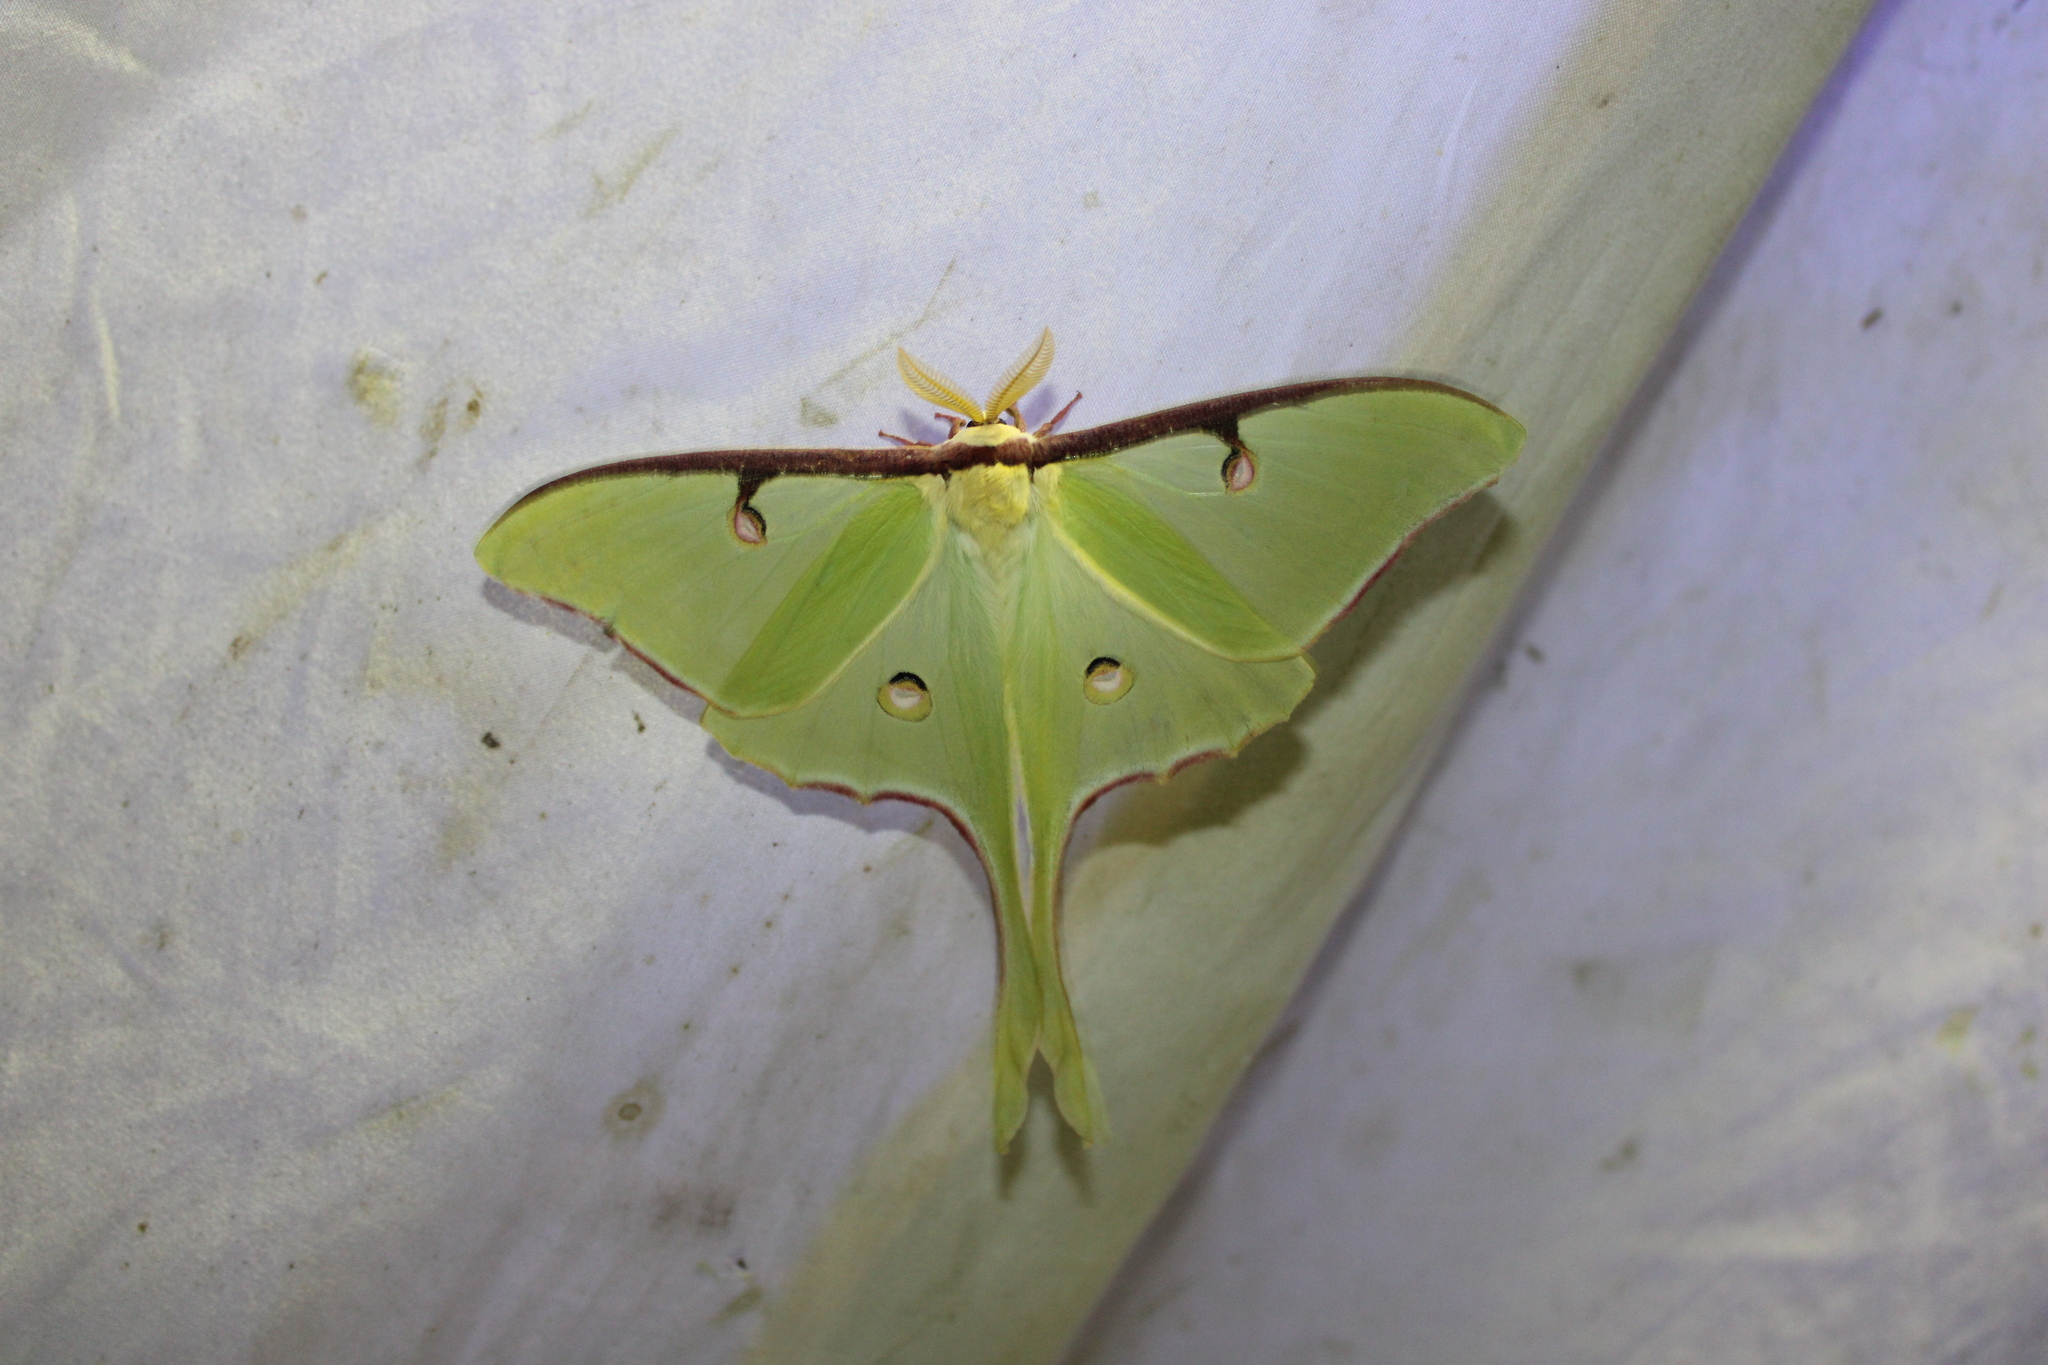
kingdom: Animalia
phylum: Arthropoda
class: Insecta
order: Lepidoptera
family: Saturniidae
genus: Actias
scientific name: Actias luna
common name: Luna moth
